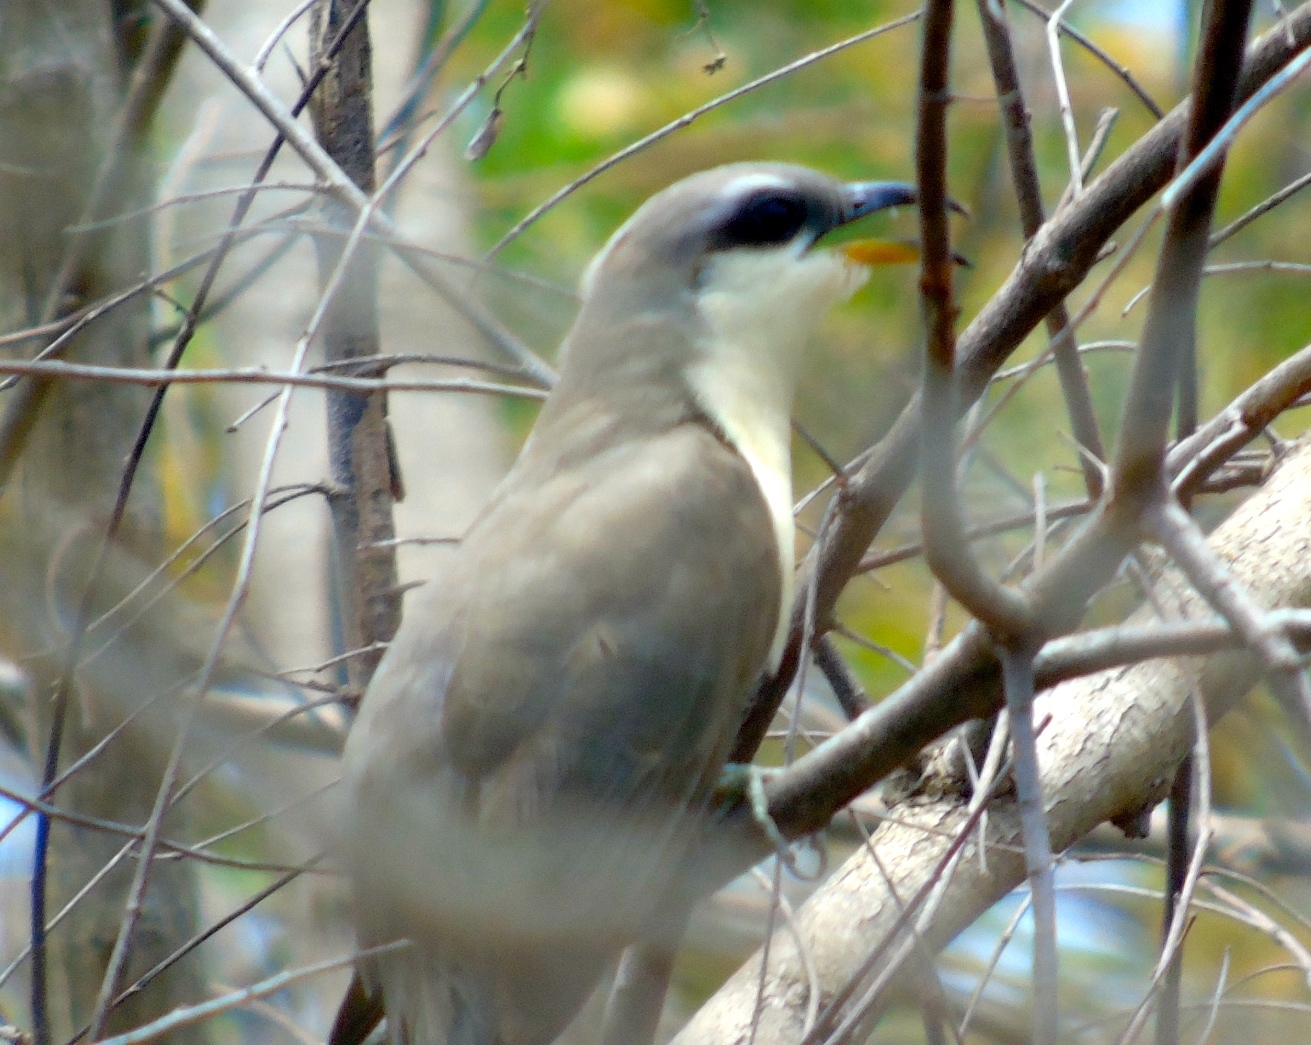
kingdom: Animalia
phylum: Chordata
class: Aves
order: Cuculiformes
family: Cuculidae
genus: Coccyzus
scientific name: Coccyzus minor
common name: Mangrove cuckoo
